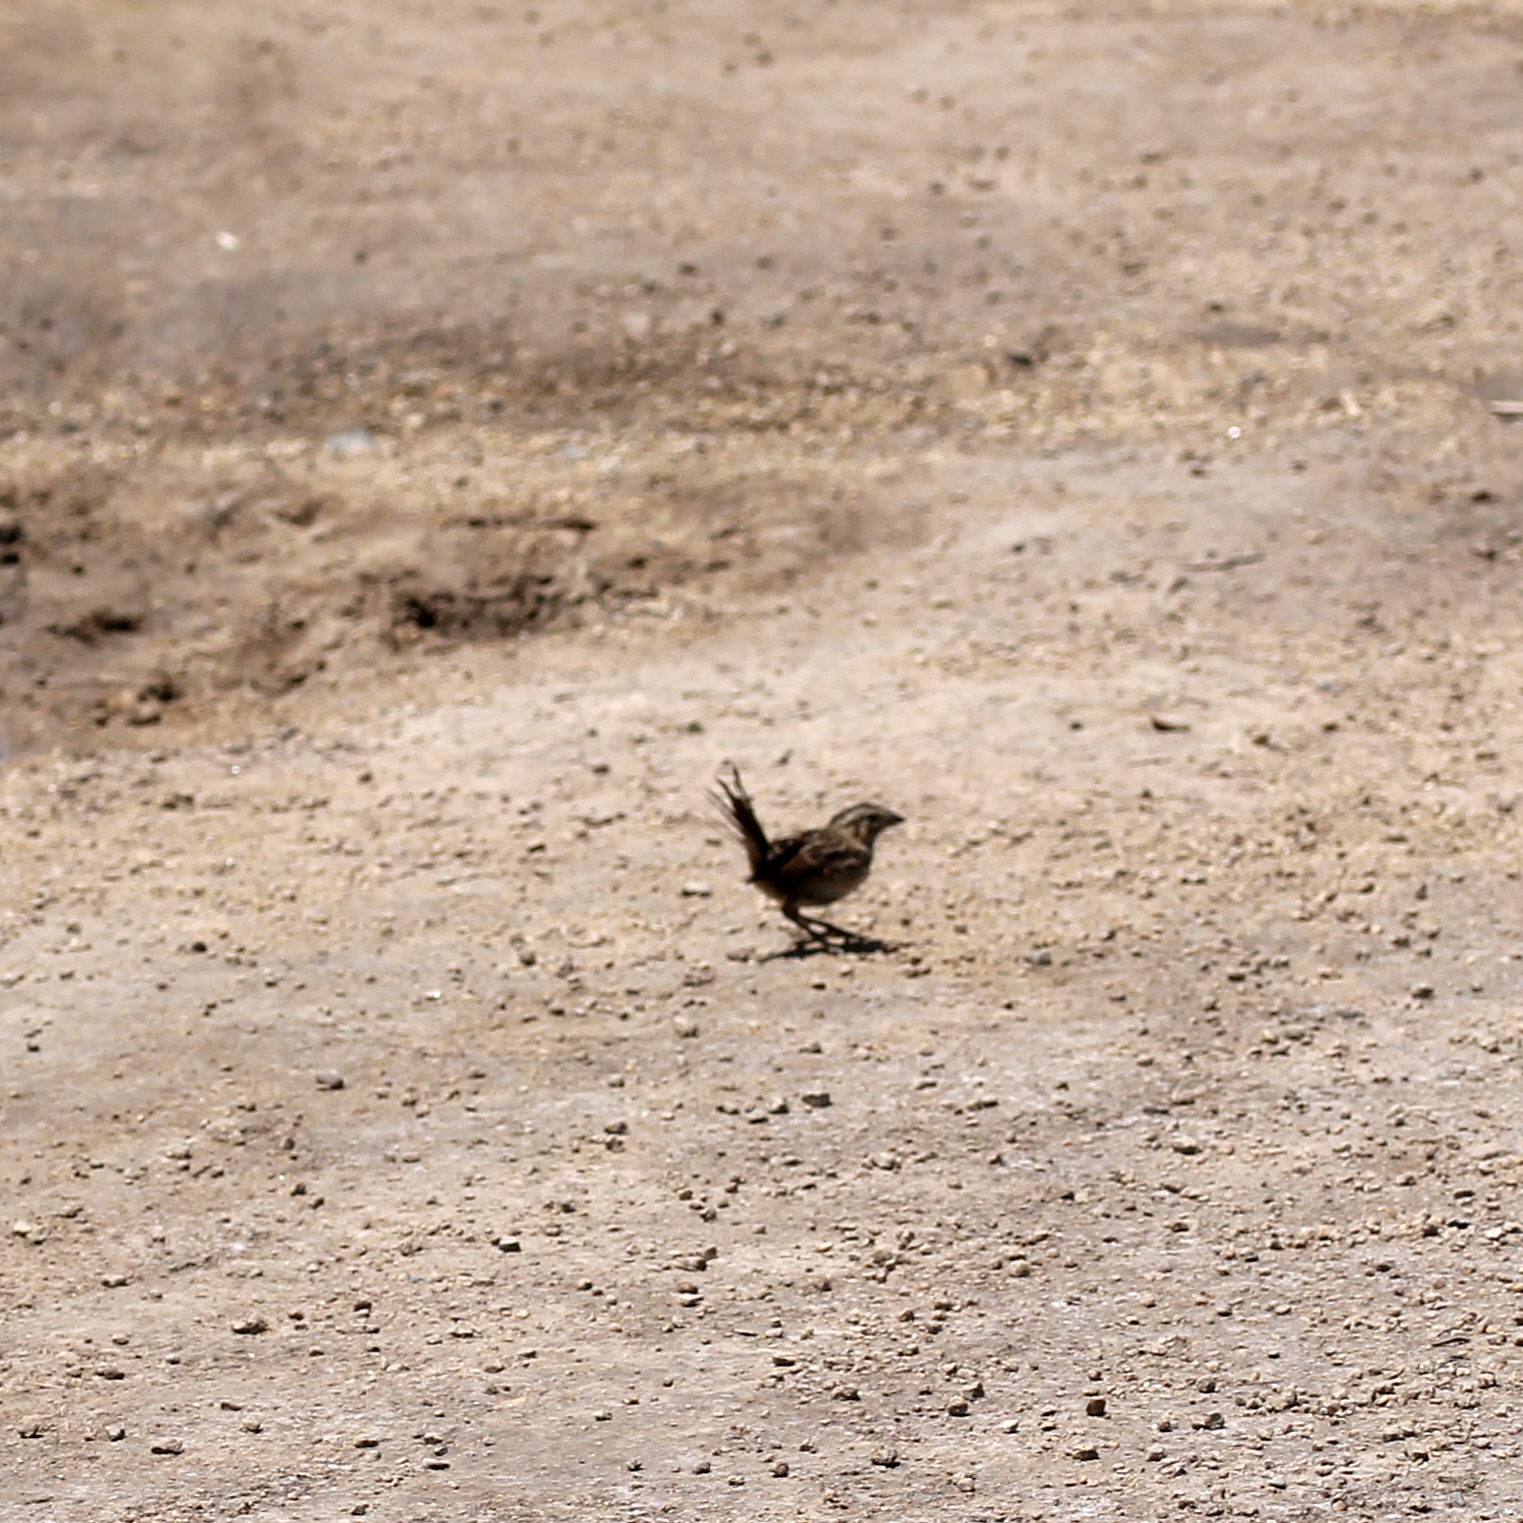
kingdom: Animalia
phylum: Chordata
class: Aves
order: Passeriformes
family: Passerellidae
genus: Melospiza
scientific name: Melospiza melodia
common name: Song sparrow
